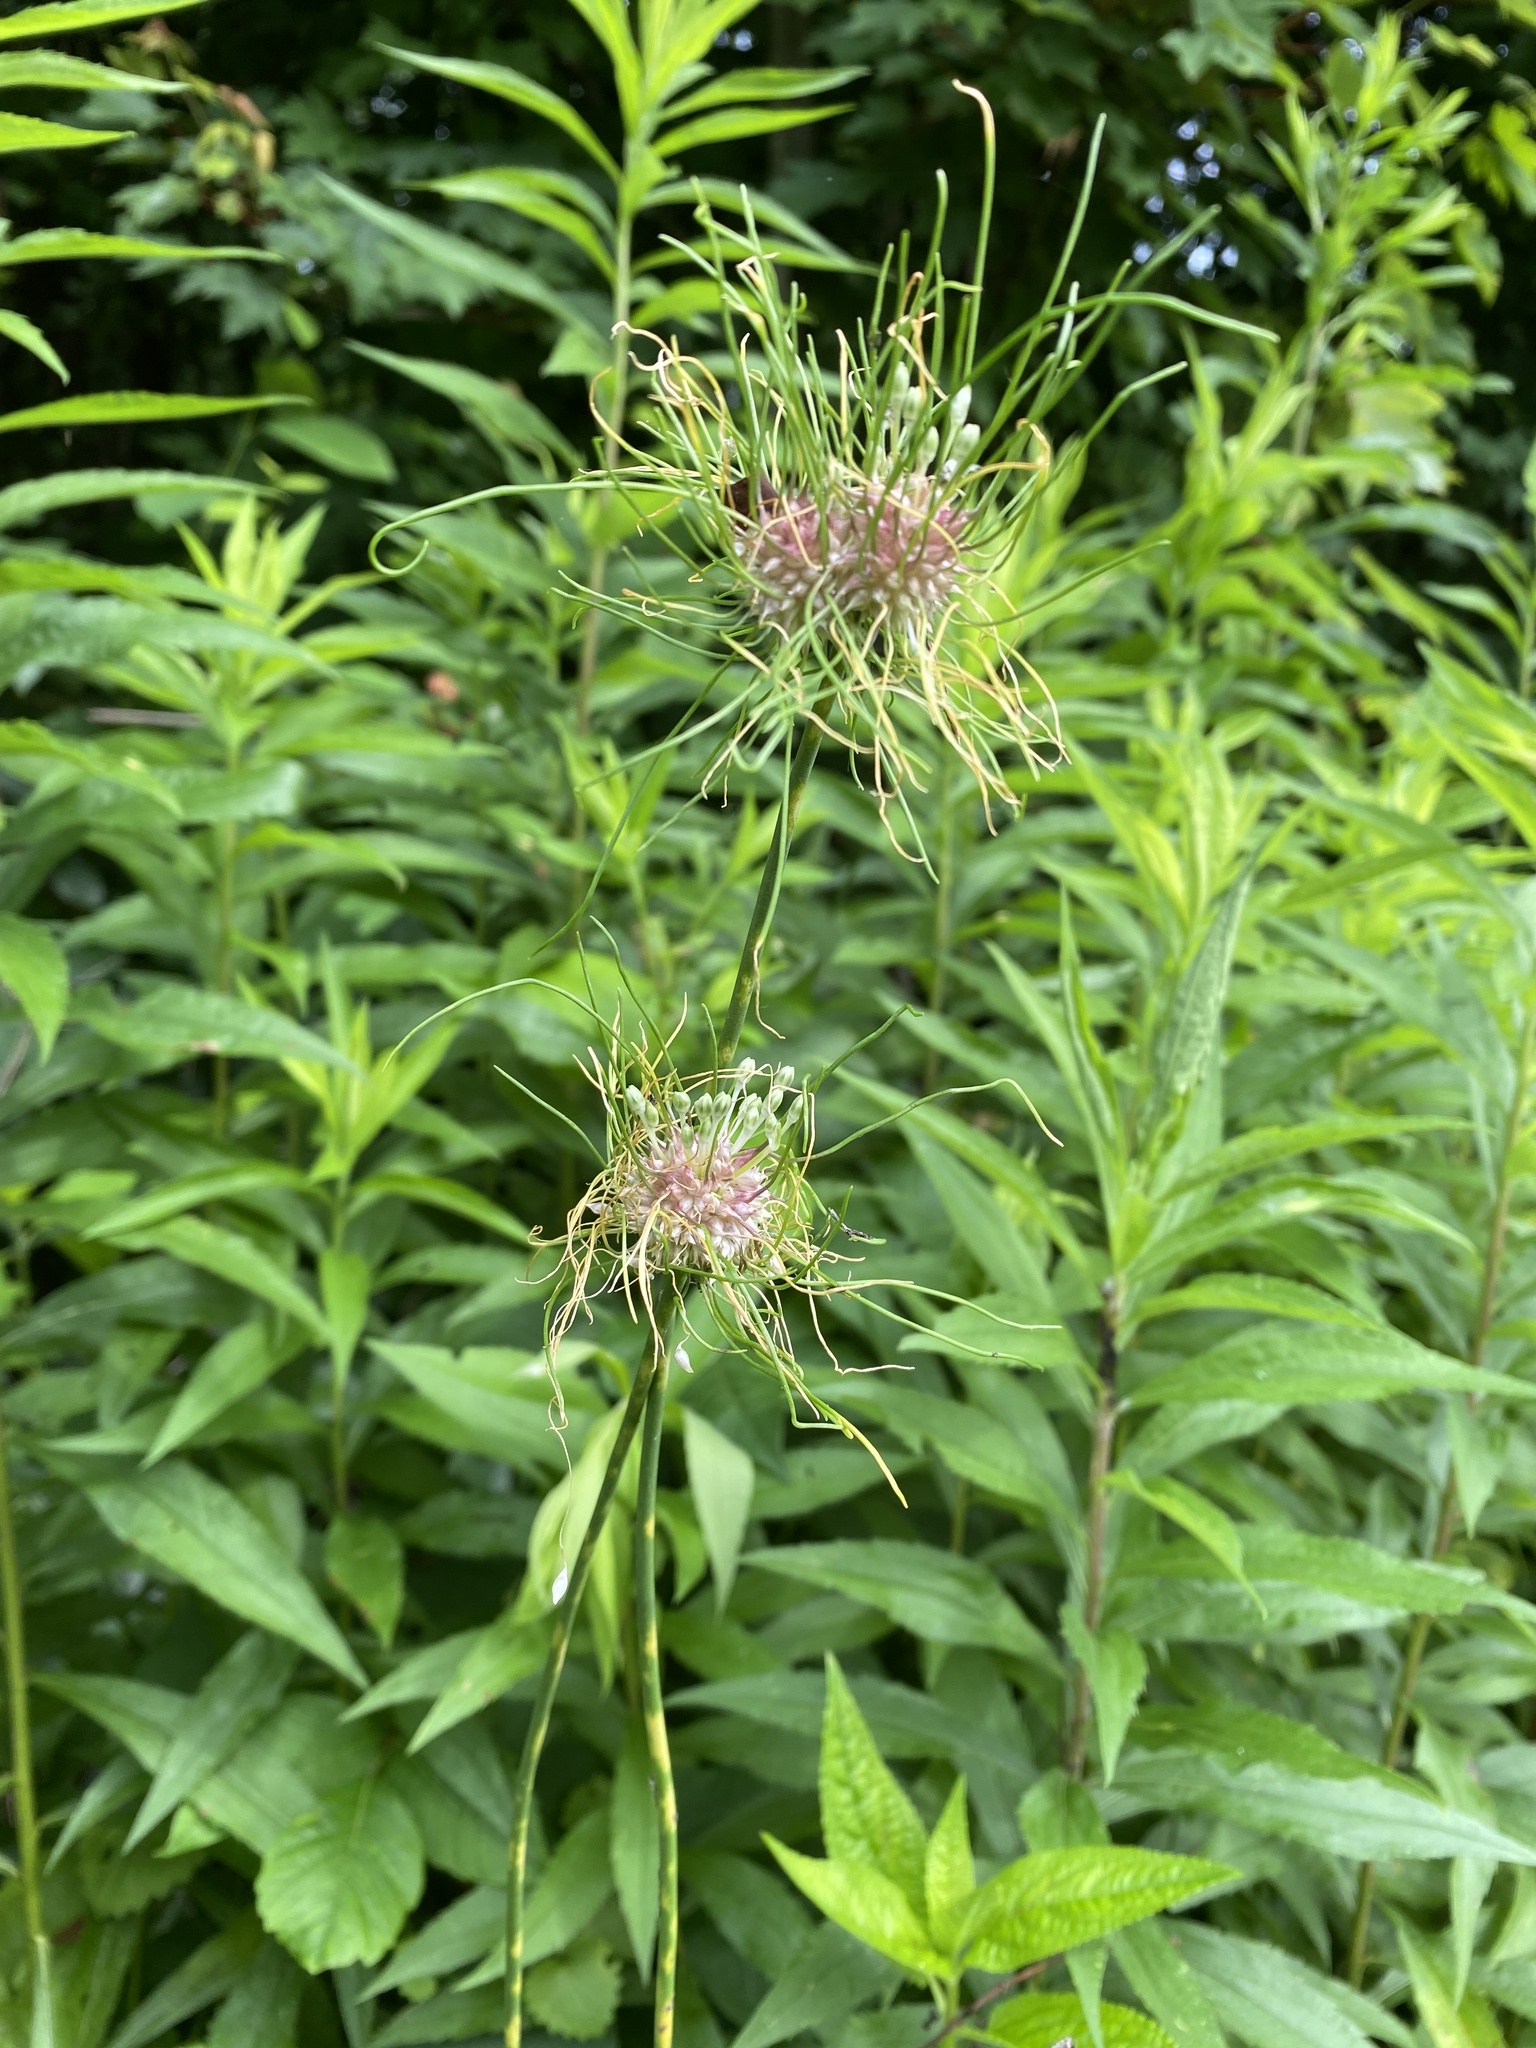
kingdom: Plantae
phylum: Tracheophyta
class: Liliopsida
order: Asparagales
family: Amaryllidaceae
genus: Allium
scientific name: Allium vineale
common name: Crow garlic
